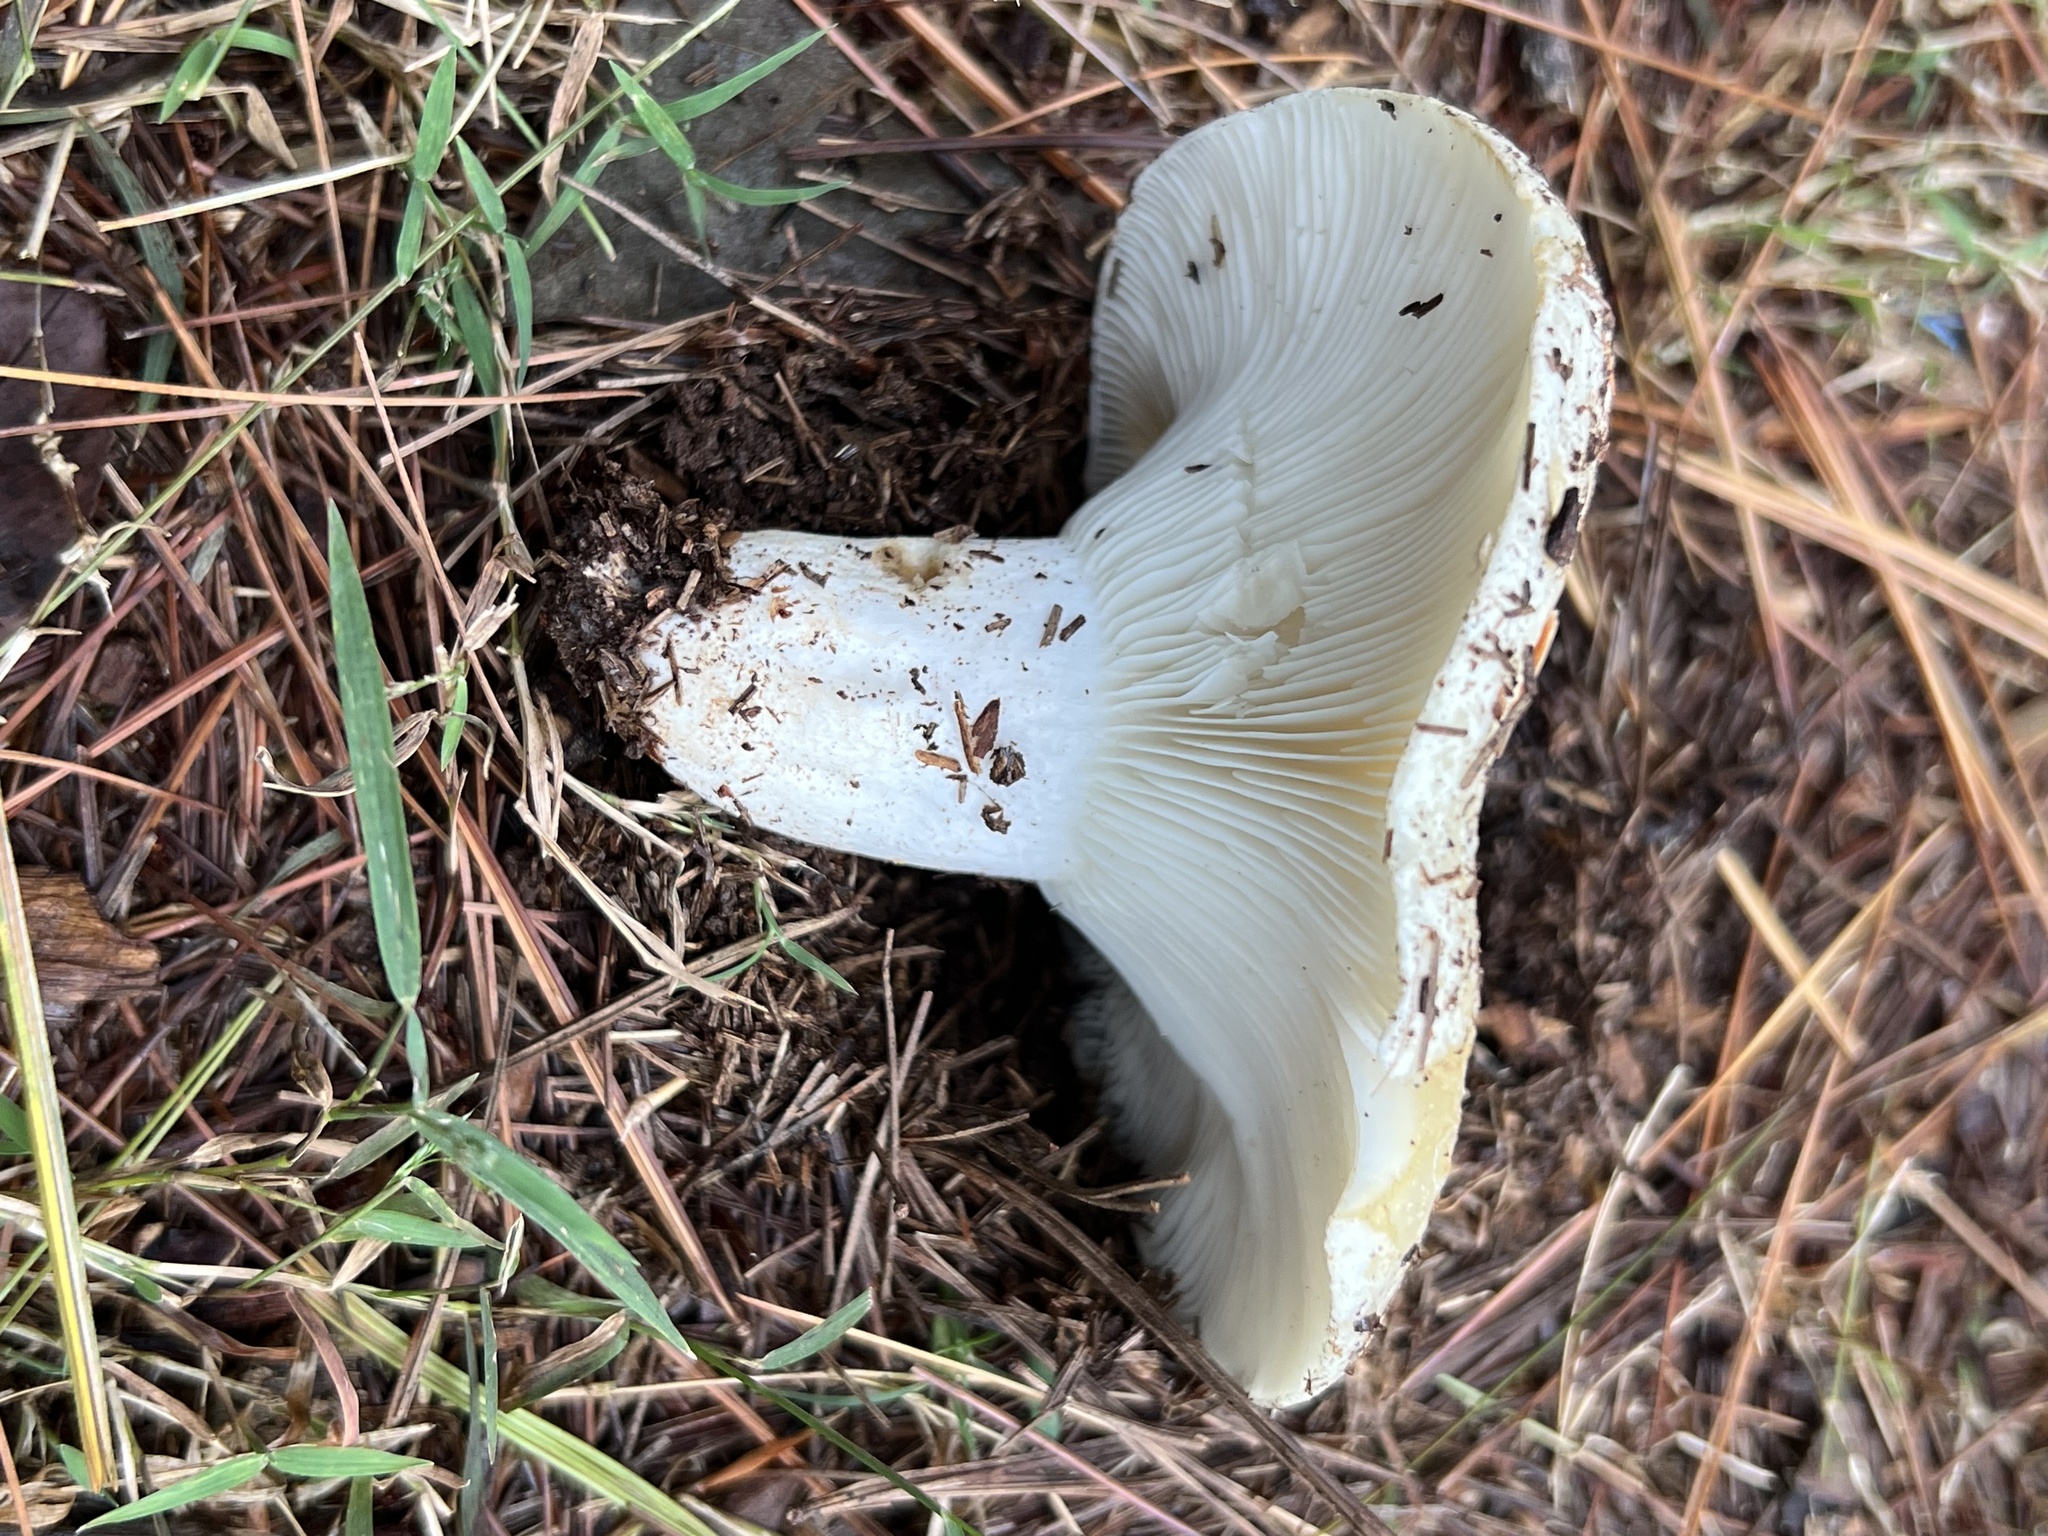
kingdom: Fungi
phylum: Basidiomycota
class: Agaricomycetes
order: Russulales
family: Russulaceae
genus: Russula
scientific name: Russula brevipes
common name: Short-stemmed russula
